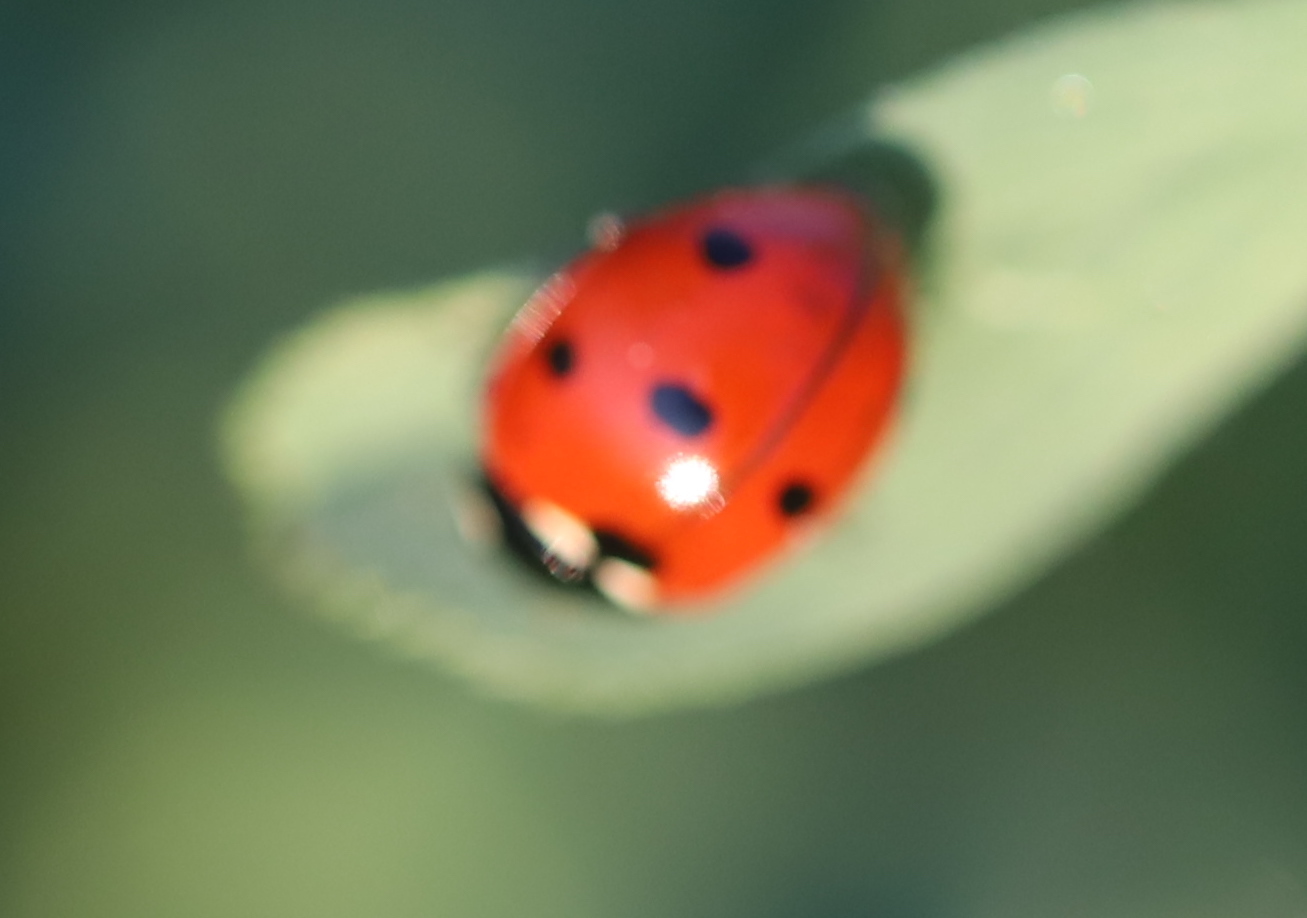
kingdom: Animalia
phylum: Arthropoda
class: Insecta
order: Coleoptera
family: Coccinellidae
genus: Coccinella
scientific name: Coccinella septempunctata
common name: Sevenspotted lady beetle
